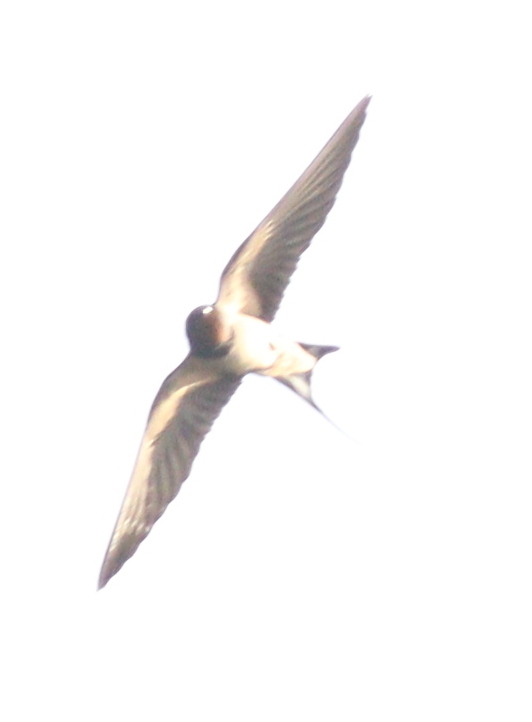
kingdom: Animalia
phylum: Chordata
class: Aves
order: Passeriformes
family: Hirundinidae
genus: Hirundo
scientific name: Hirundo rustica
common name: Barn swallow
